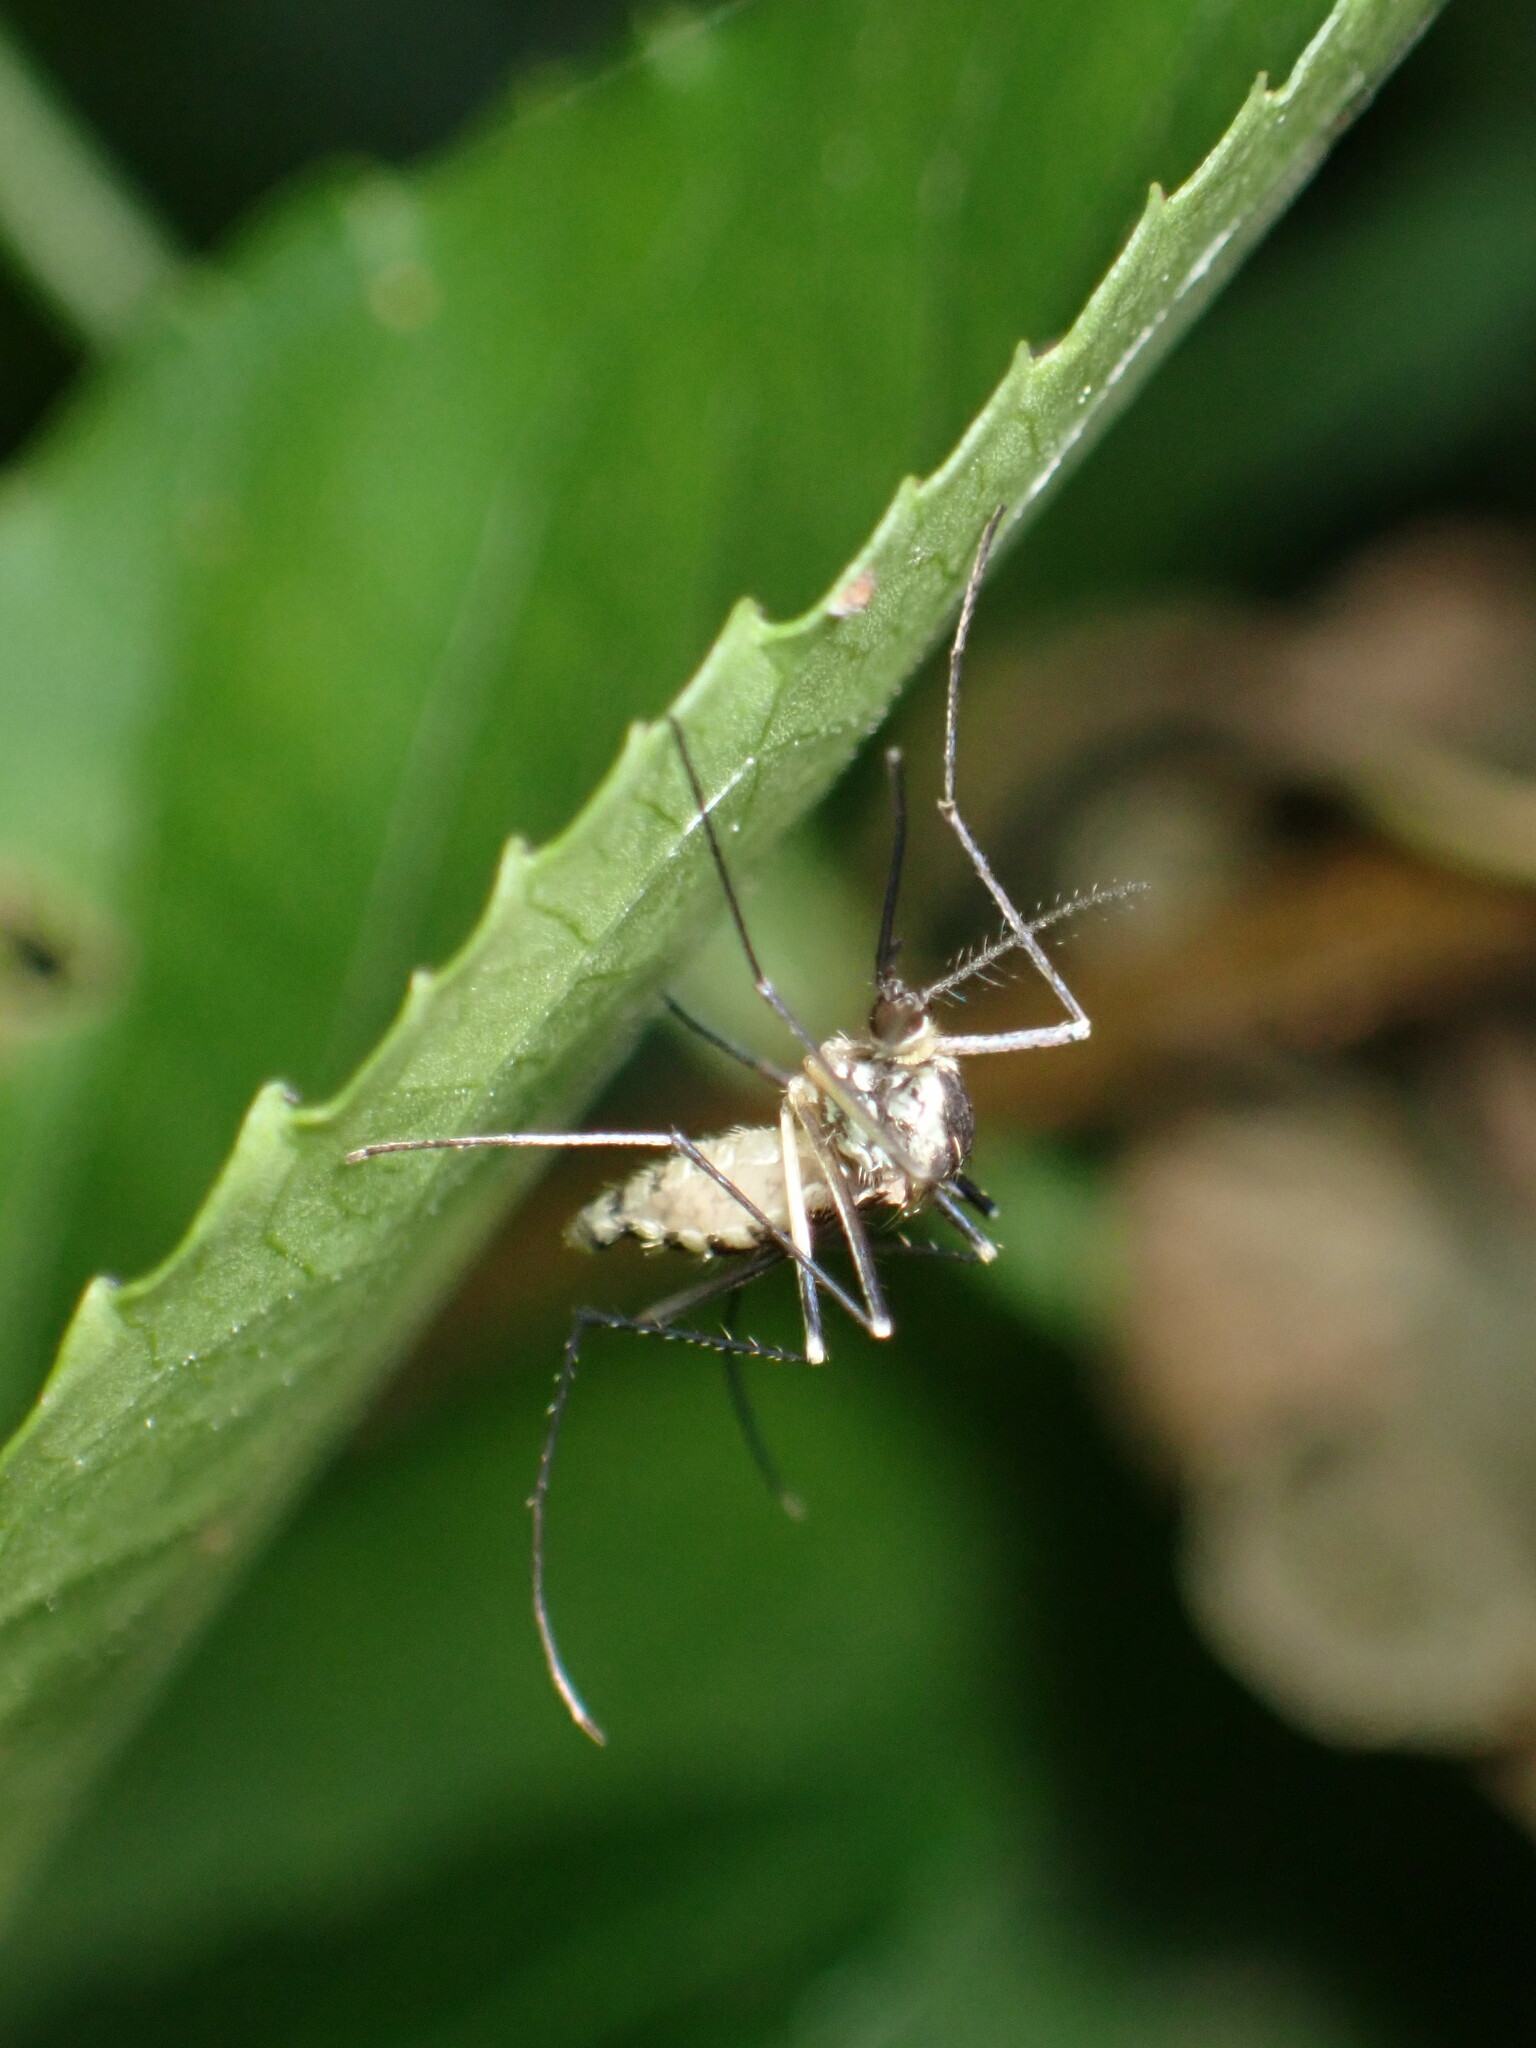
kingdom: Animalia
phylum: Arthropoda
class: Insecta
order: Diptera
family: Culicidae
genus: Aedes
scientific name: Aedes triseriatus
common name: Eastern treehole mosquito
